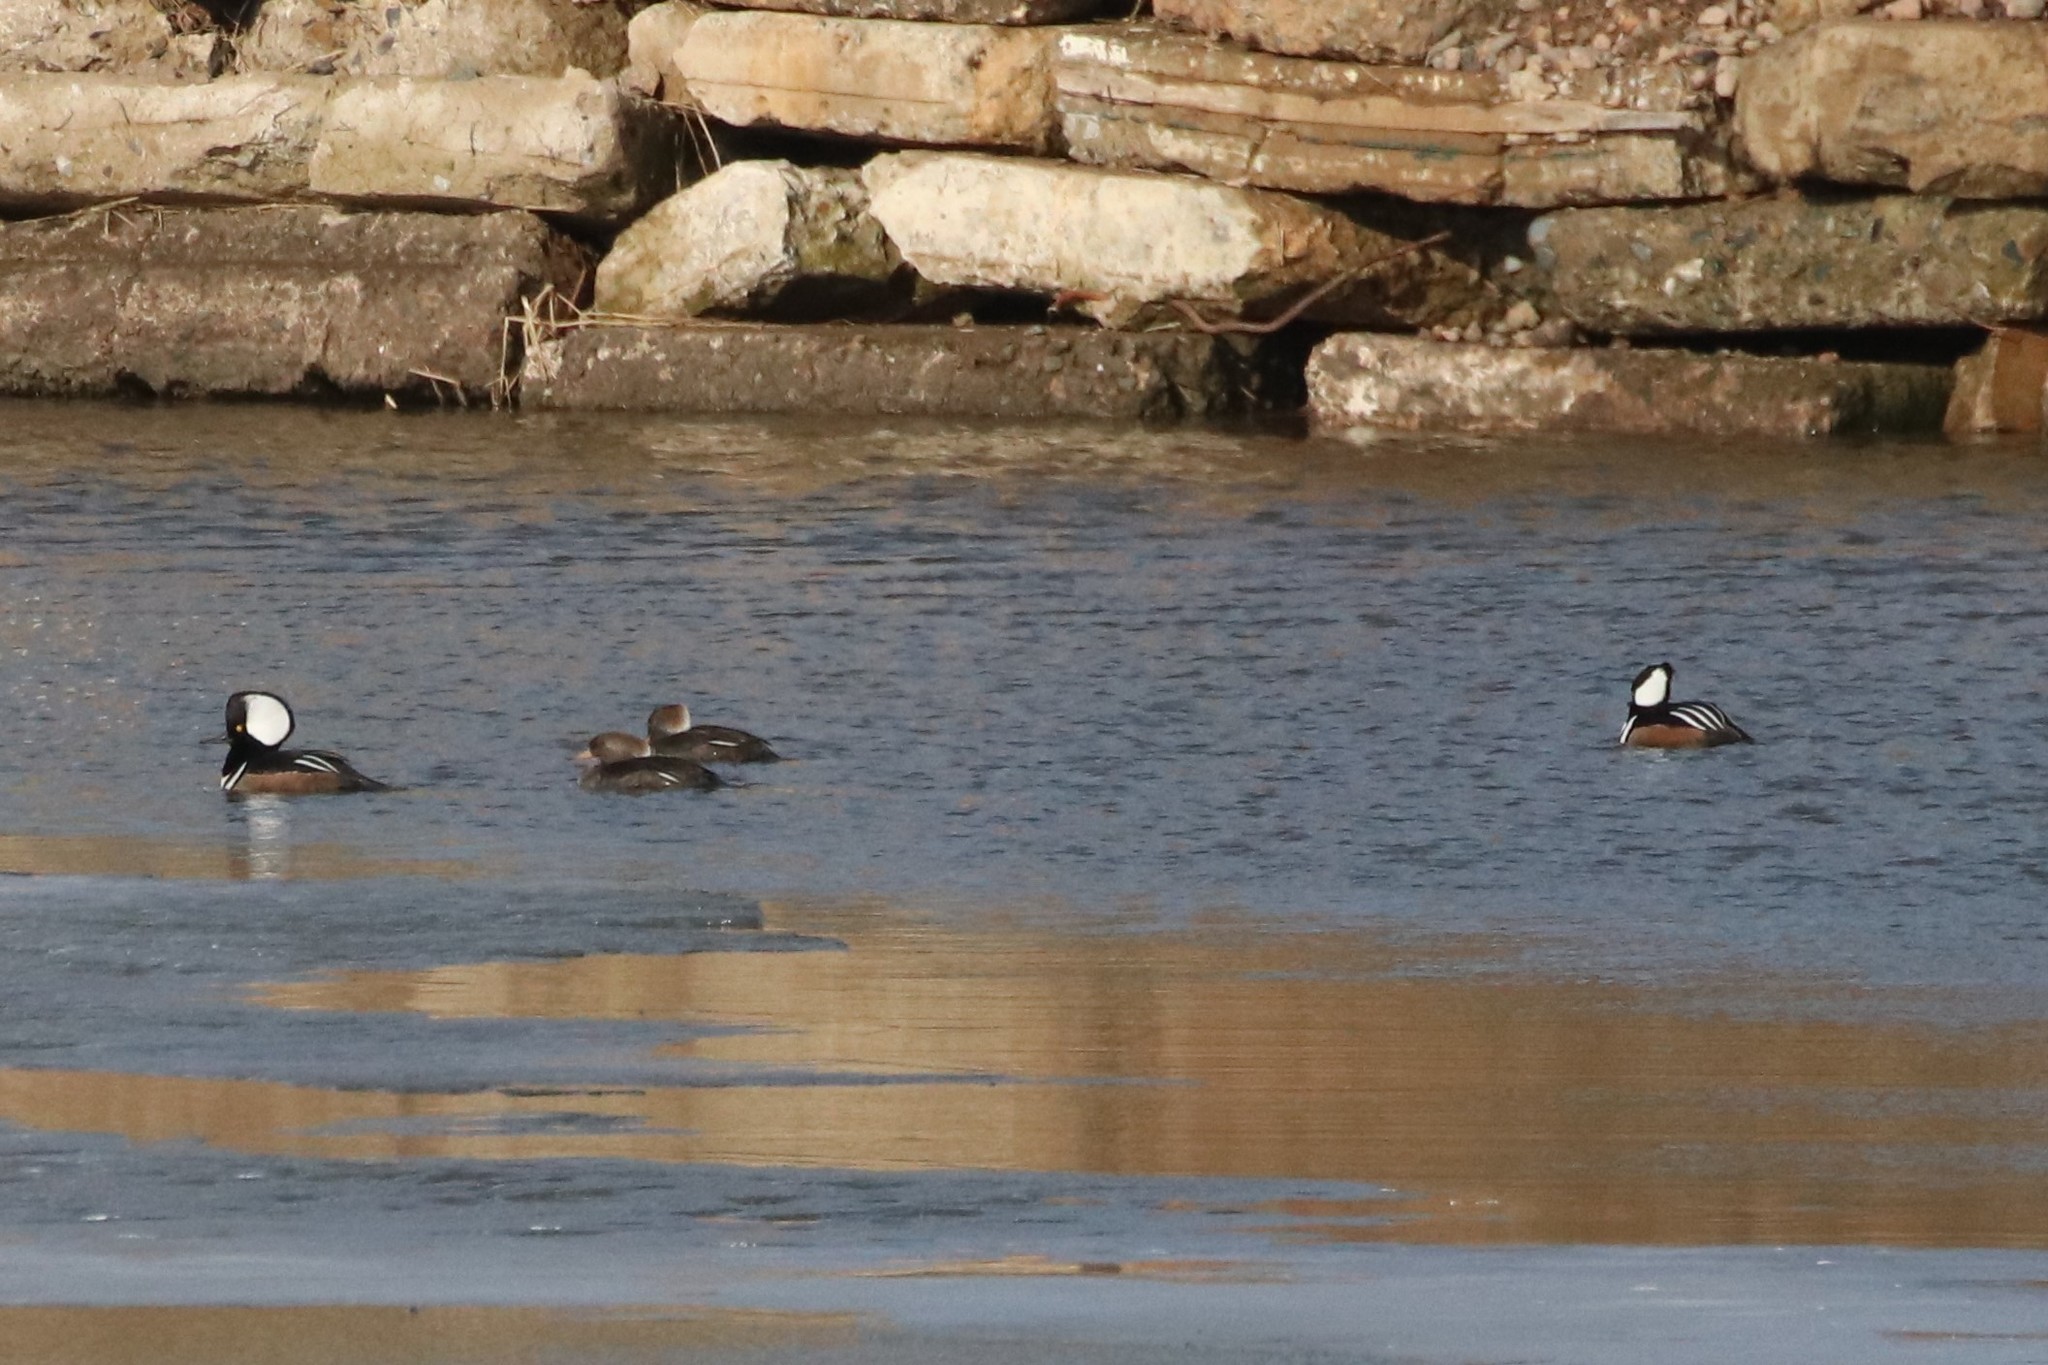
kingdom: Animalia
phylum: Chordata
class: Aves
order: Anseriformes
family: Anatidae
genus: Lophodytes
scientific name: Lophodytes cucullatus
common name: Hooded merganser
